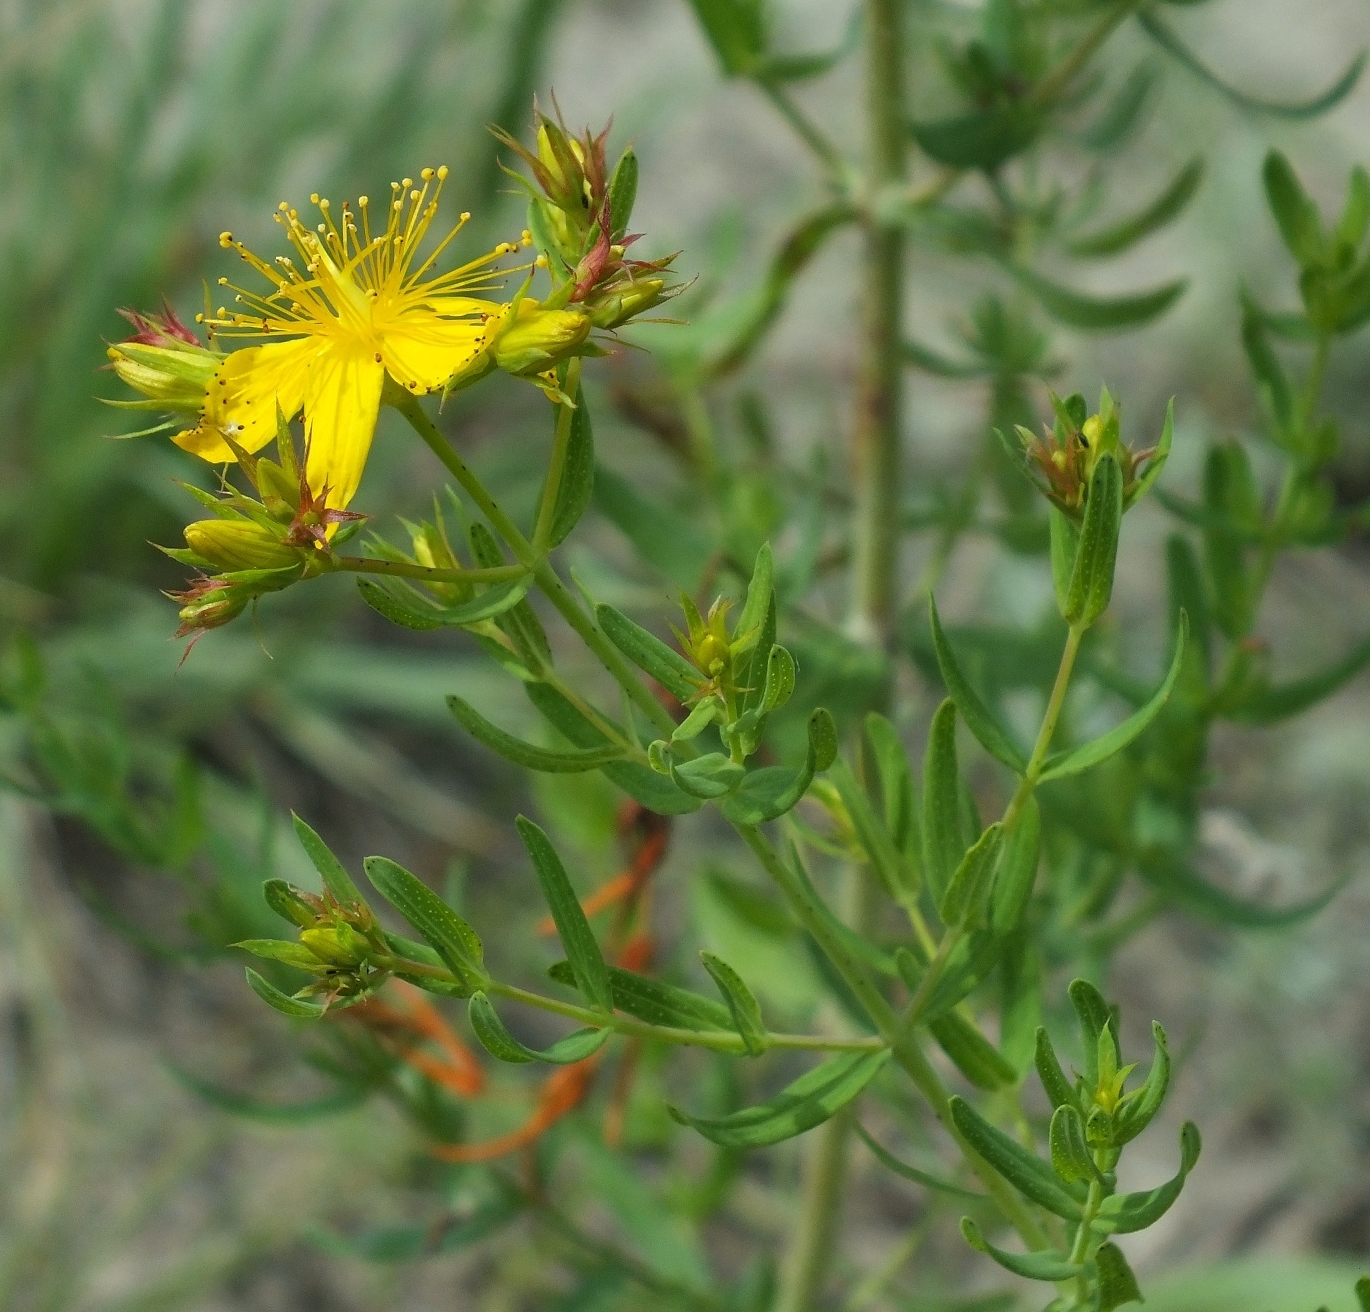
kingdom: Plantae
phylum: Tracheophyta
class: Magnoliopsida
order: Malpighiales
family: Hypericaceae
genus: Hypericum
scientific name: Hypericum perforatum
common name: Common st. johnswort
